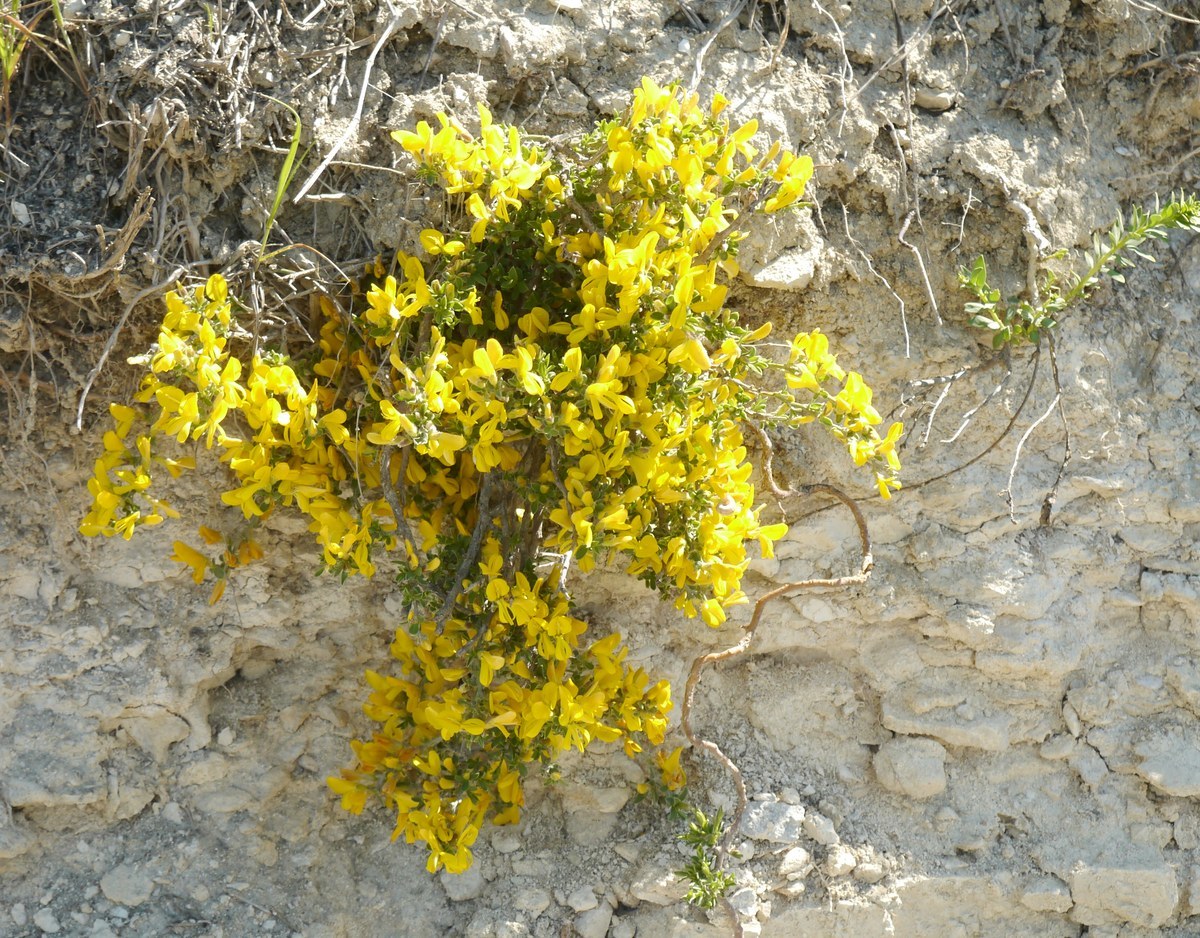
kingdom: Plantae
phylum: Tracheophyta
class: Magnoliopsida
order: Fabales
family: Fabaceae
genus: Caragana
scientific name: Caragana frutex
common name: Russian peashrub
